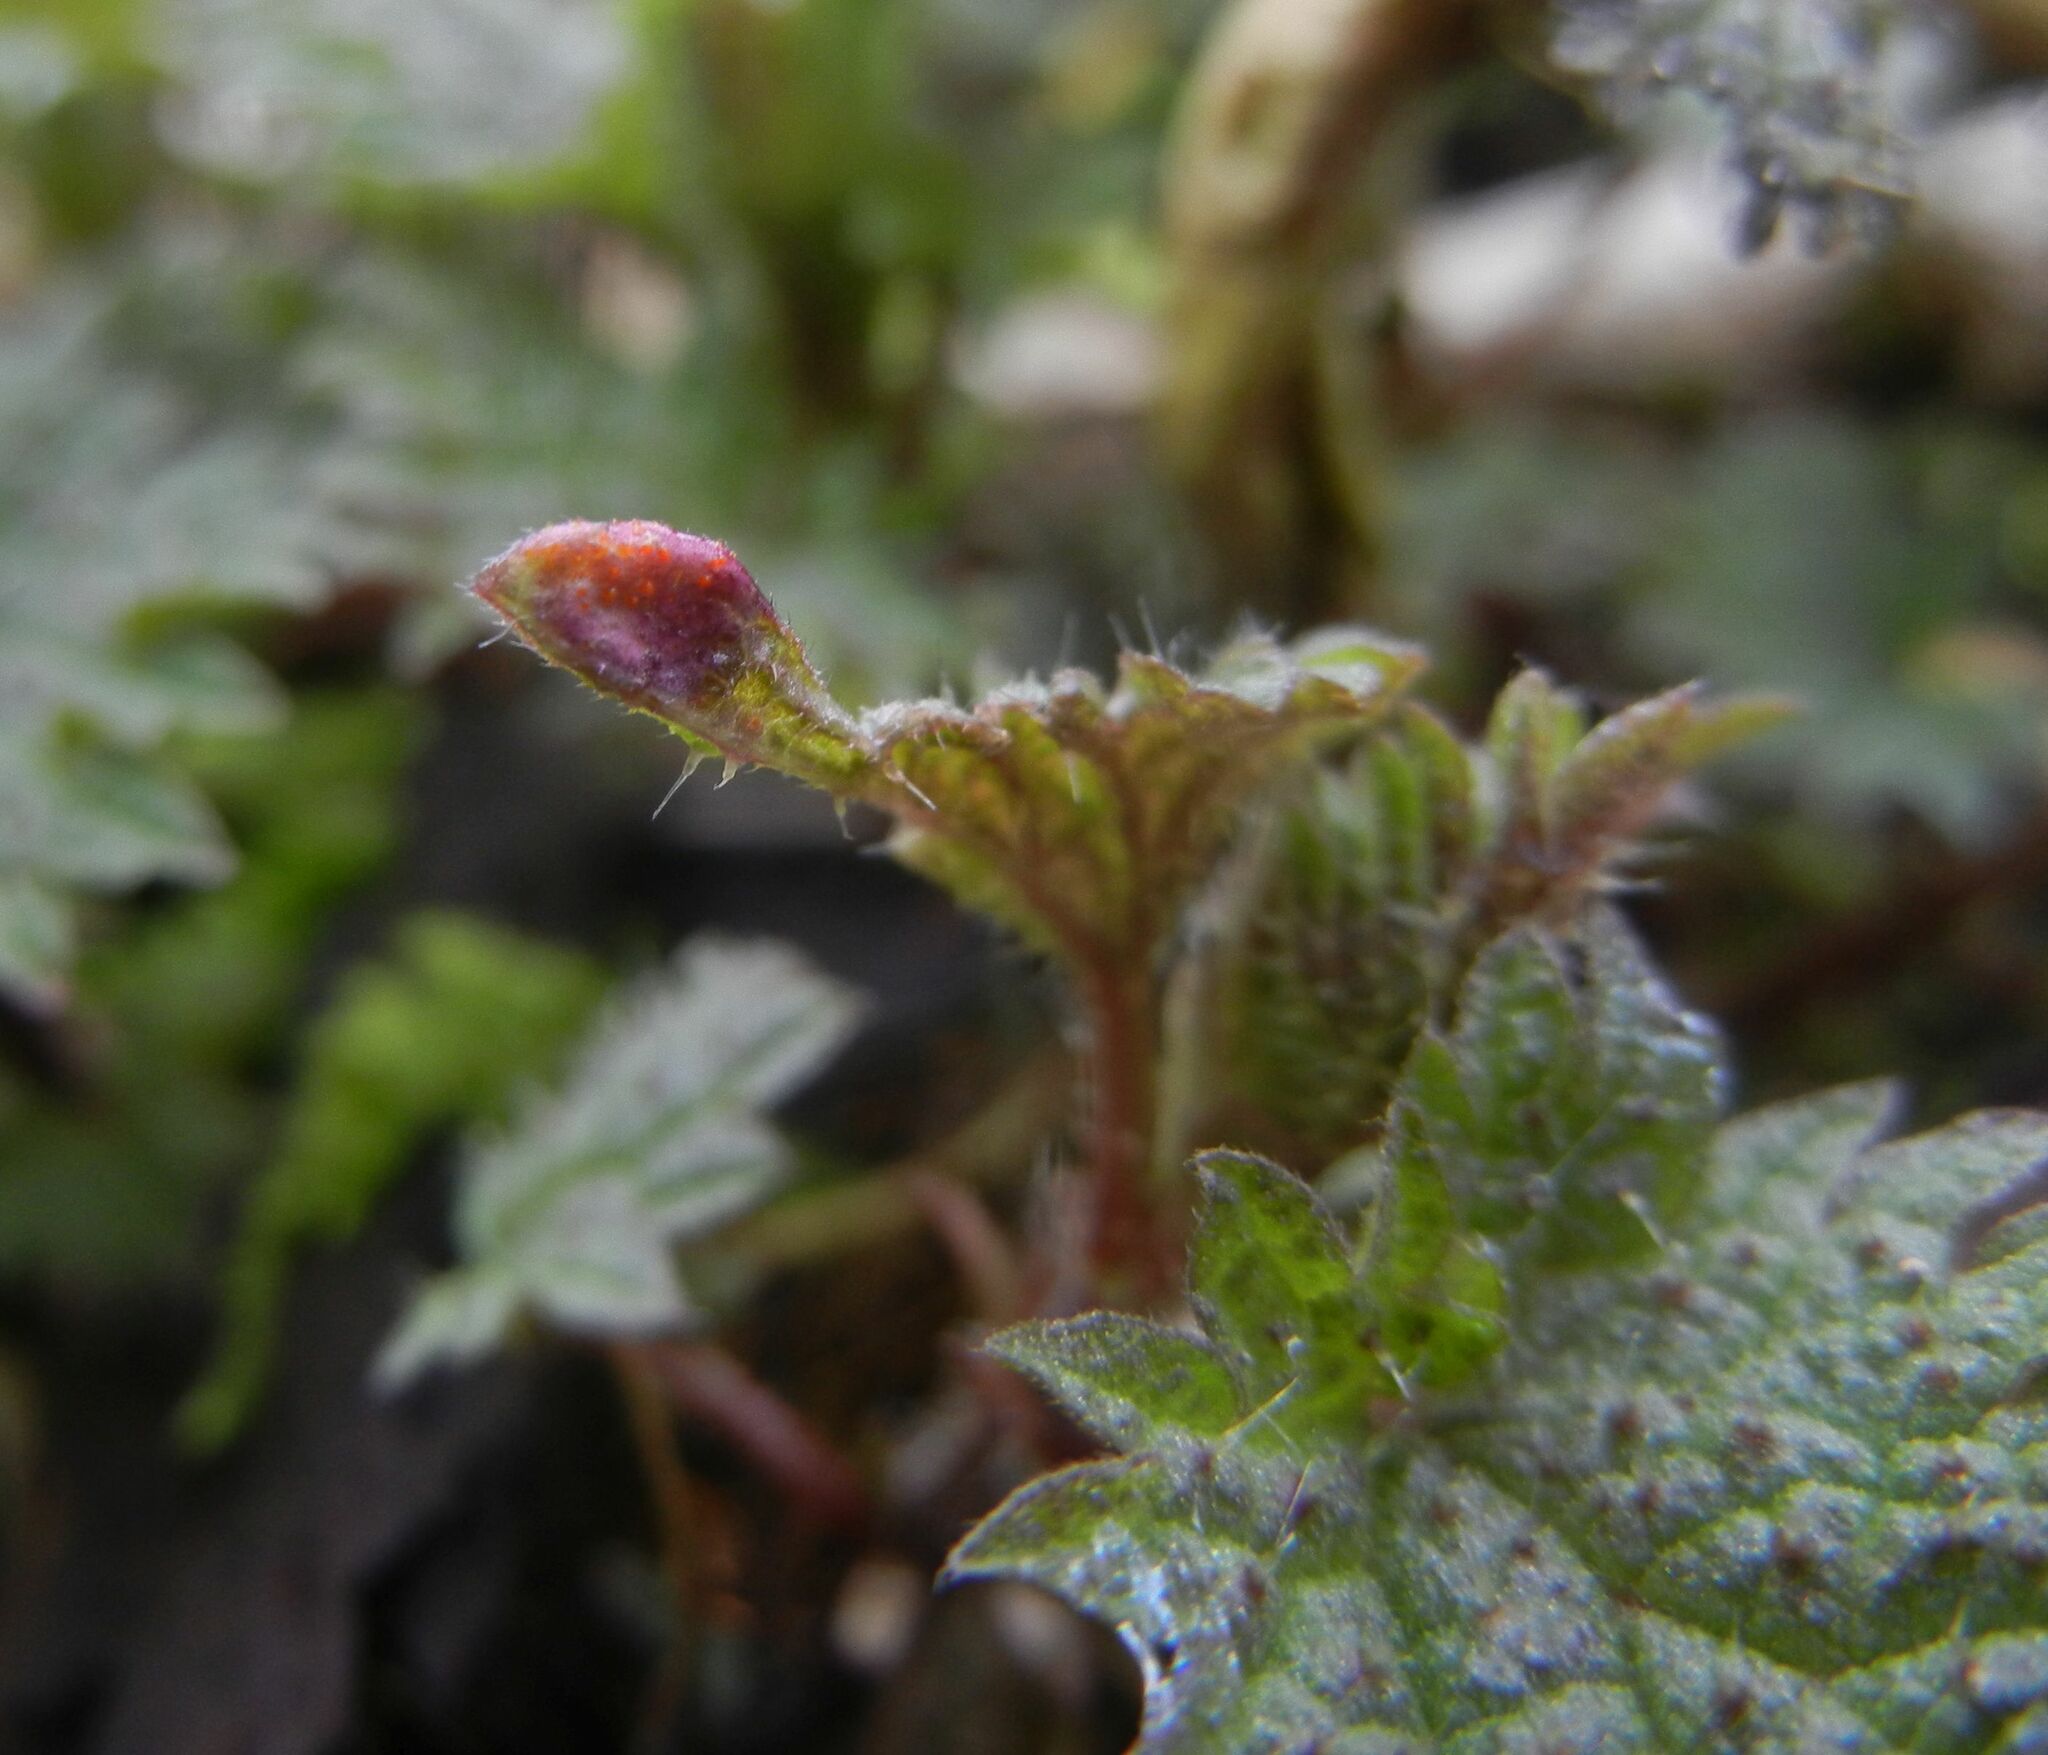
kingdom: Fungi
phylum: Basidiomycota
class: Pucciniomycetes
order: Pucciniales
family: Pucciniaceae
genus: Puccinia
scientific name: Puccinia urticata
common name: Nettle clustercup rust fungus
